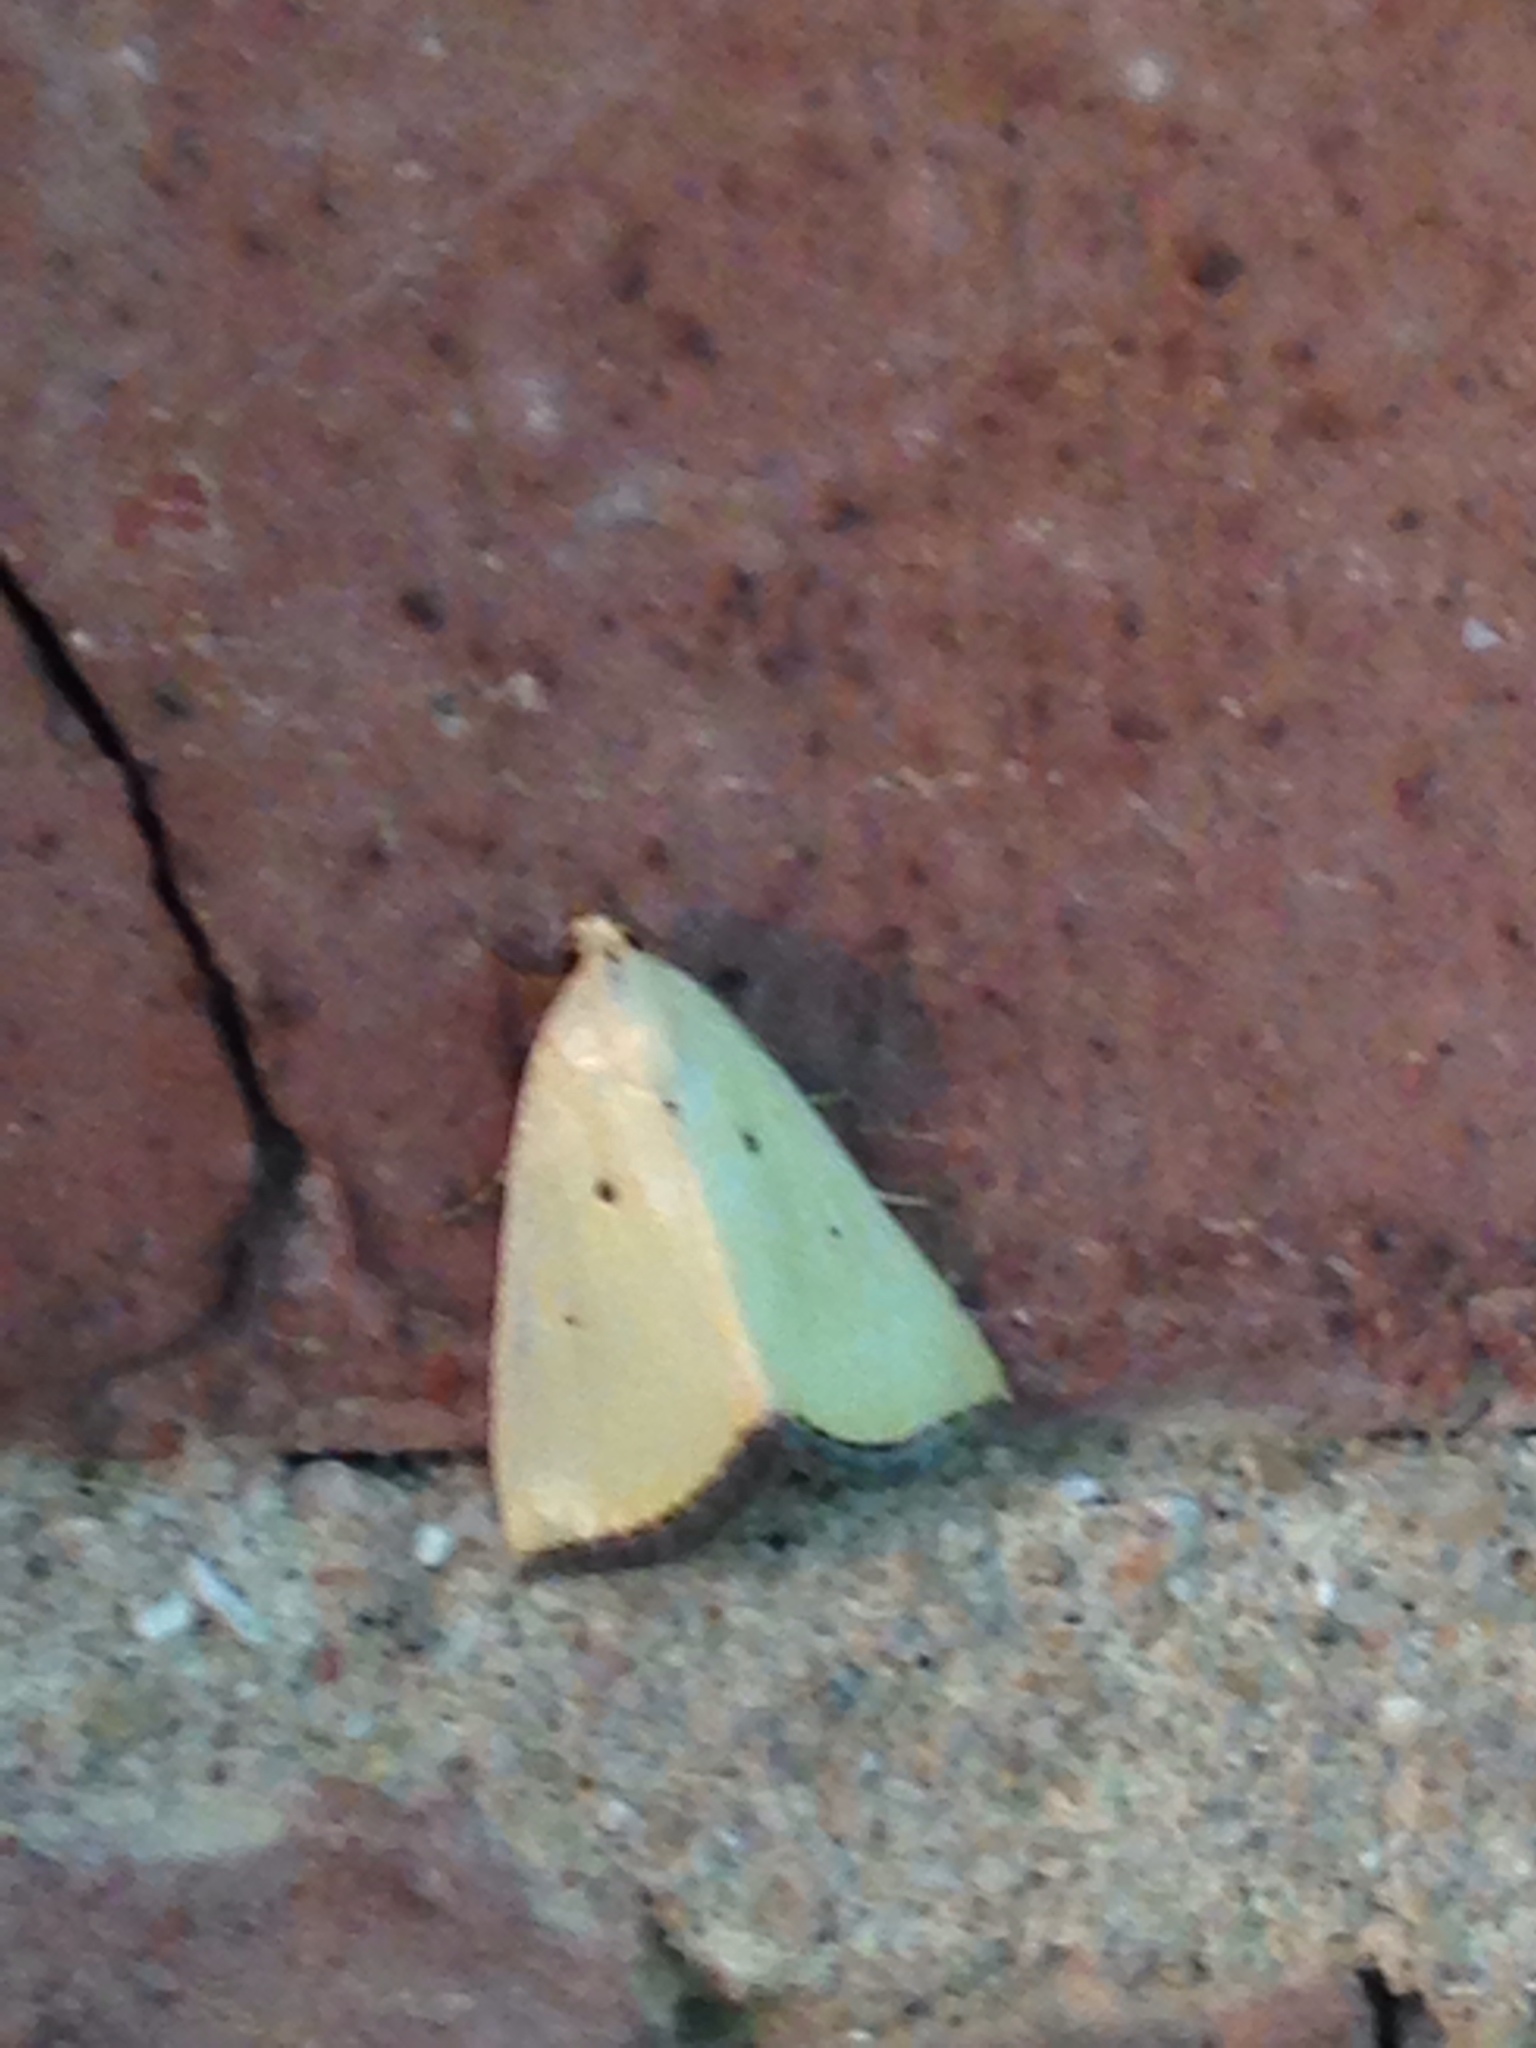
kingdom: Animalia
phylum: Arthropoda
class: Insecta
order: Lepidoptera
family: Noctuidae
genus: Marimatha
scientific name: Marimatha nigrofimbria
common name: Black-bordered lemon moth
